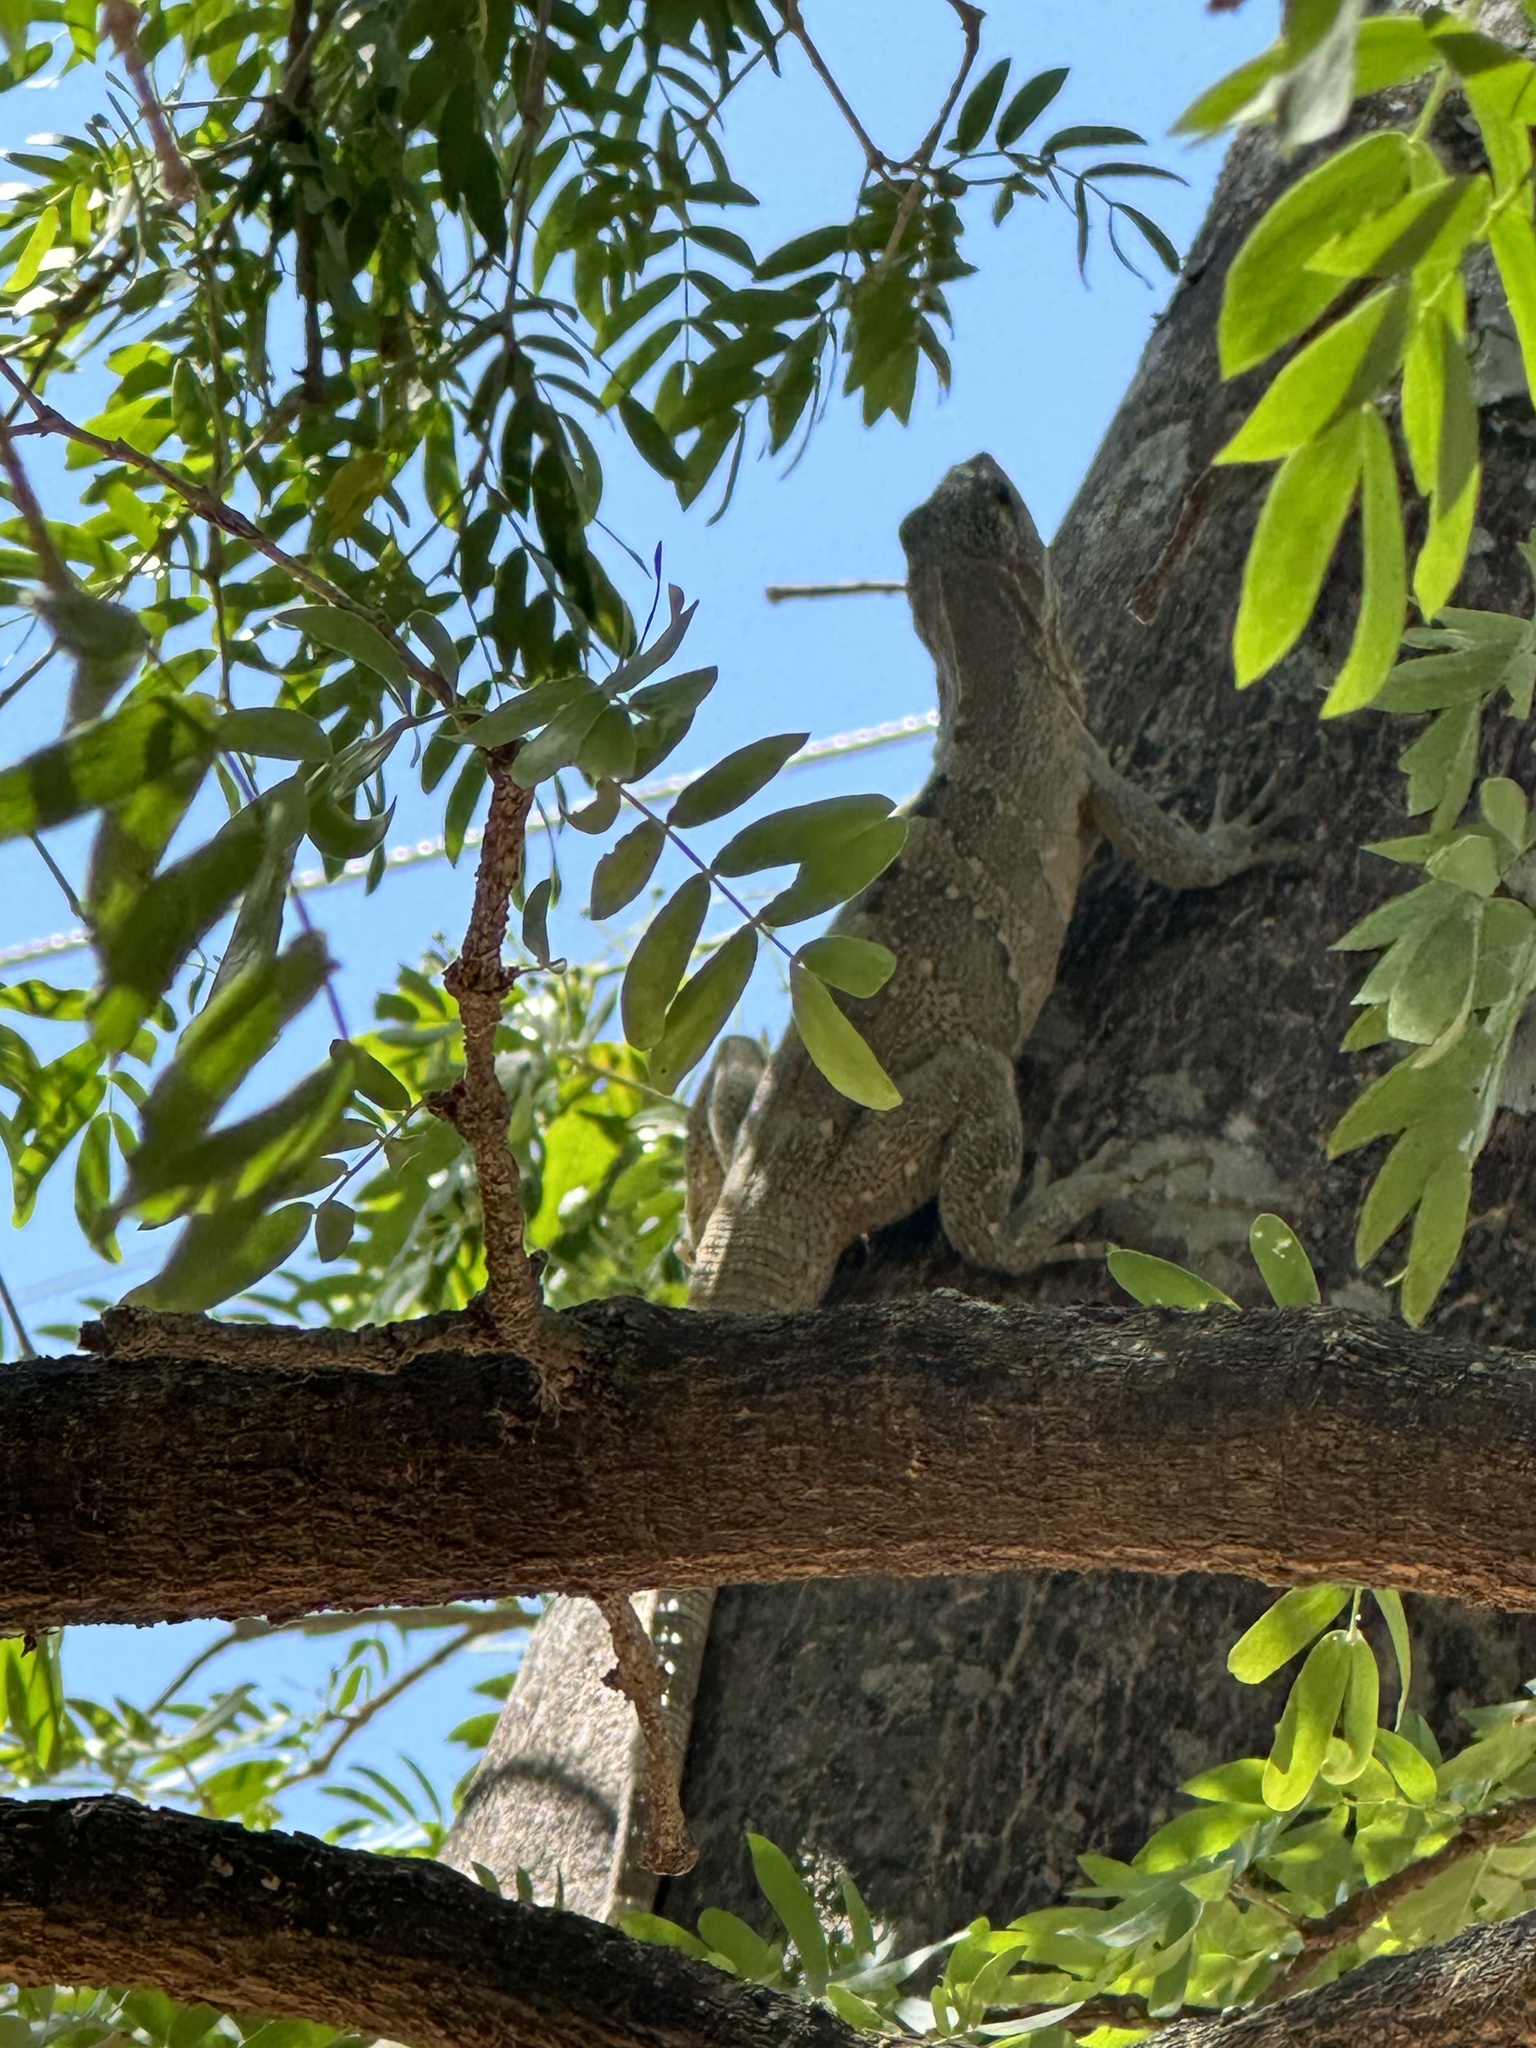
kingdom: Animalia
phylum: Chordata
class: Squamata
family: Iguanidae
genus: Ctenosaura
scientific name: Ctenosaura similis
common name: Black spiny-tailed iguana
